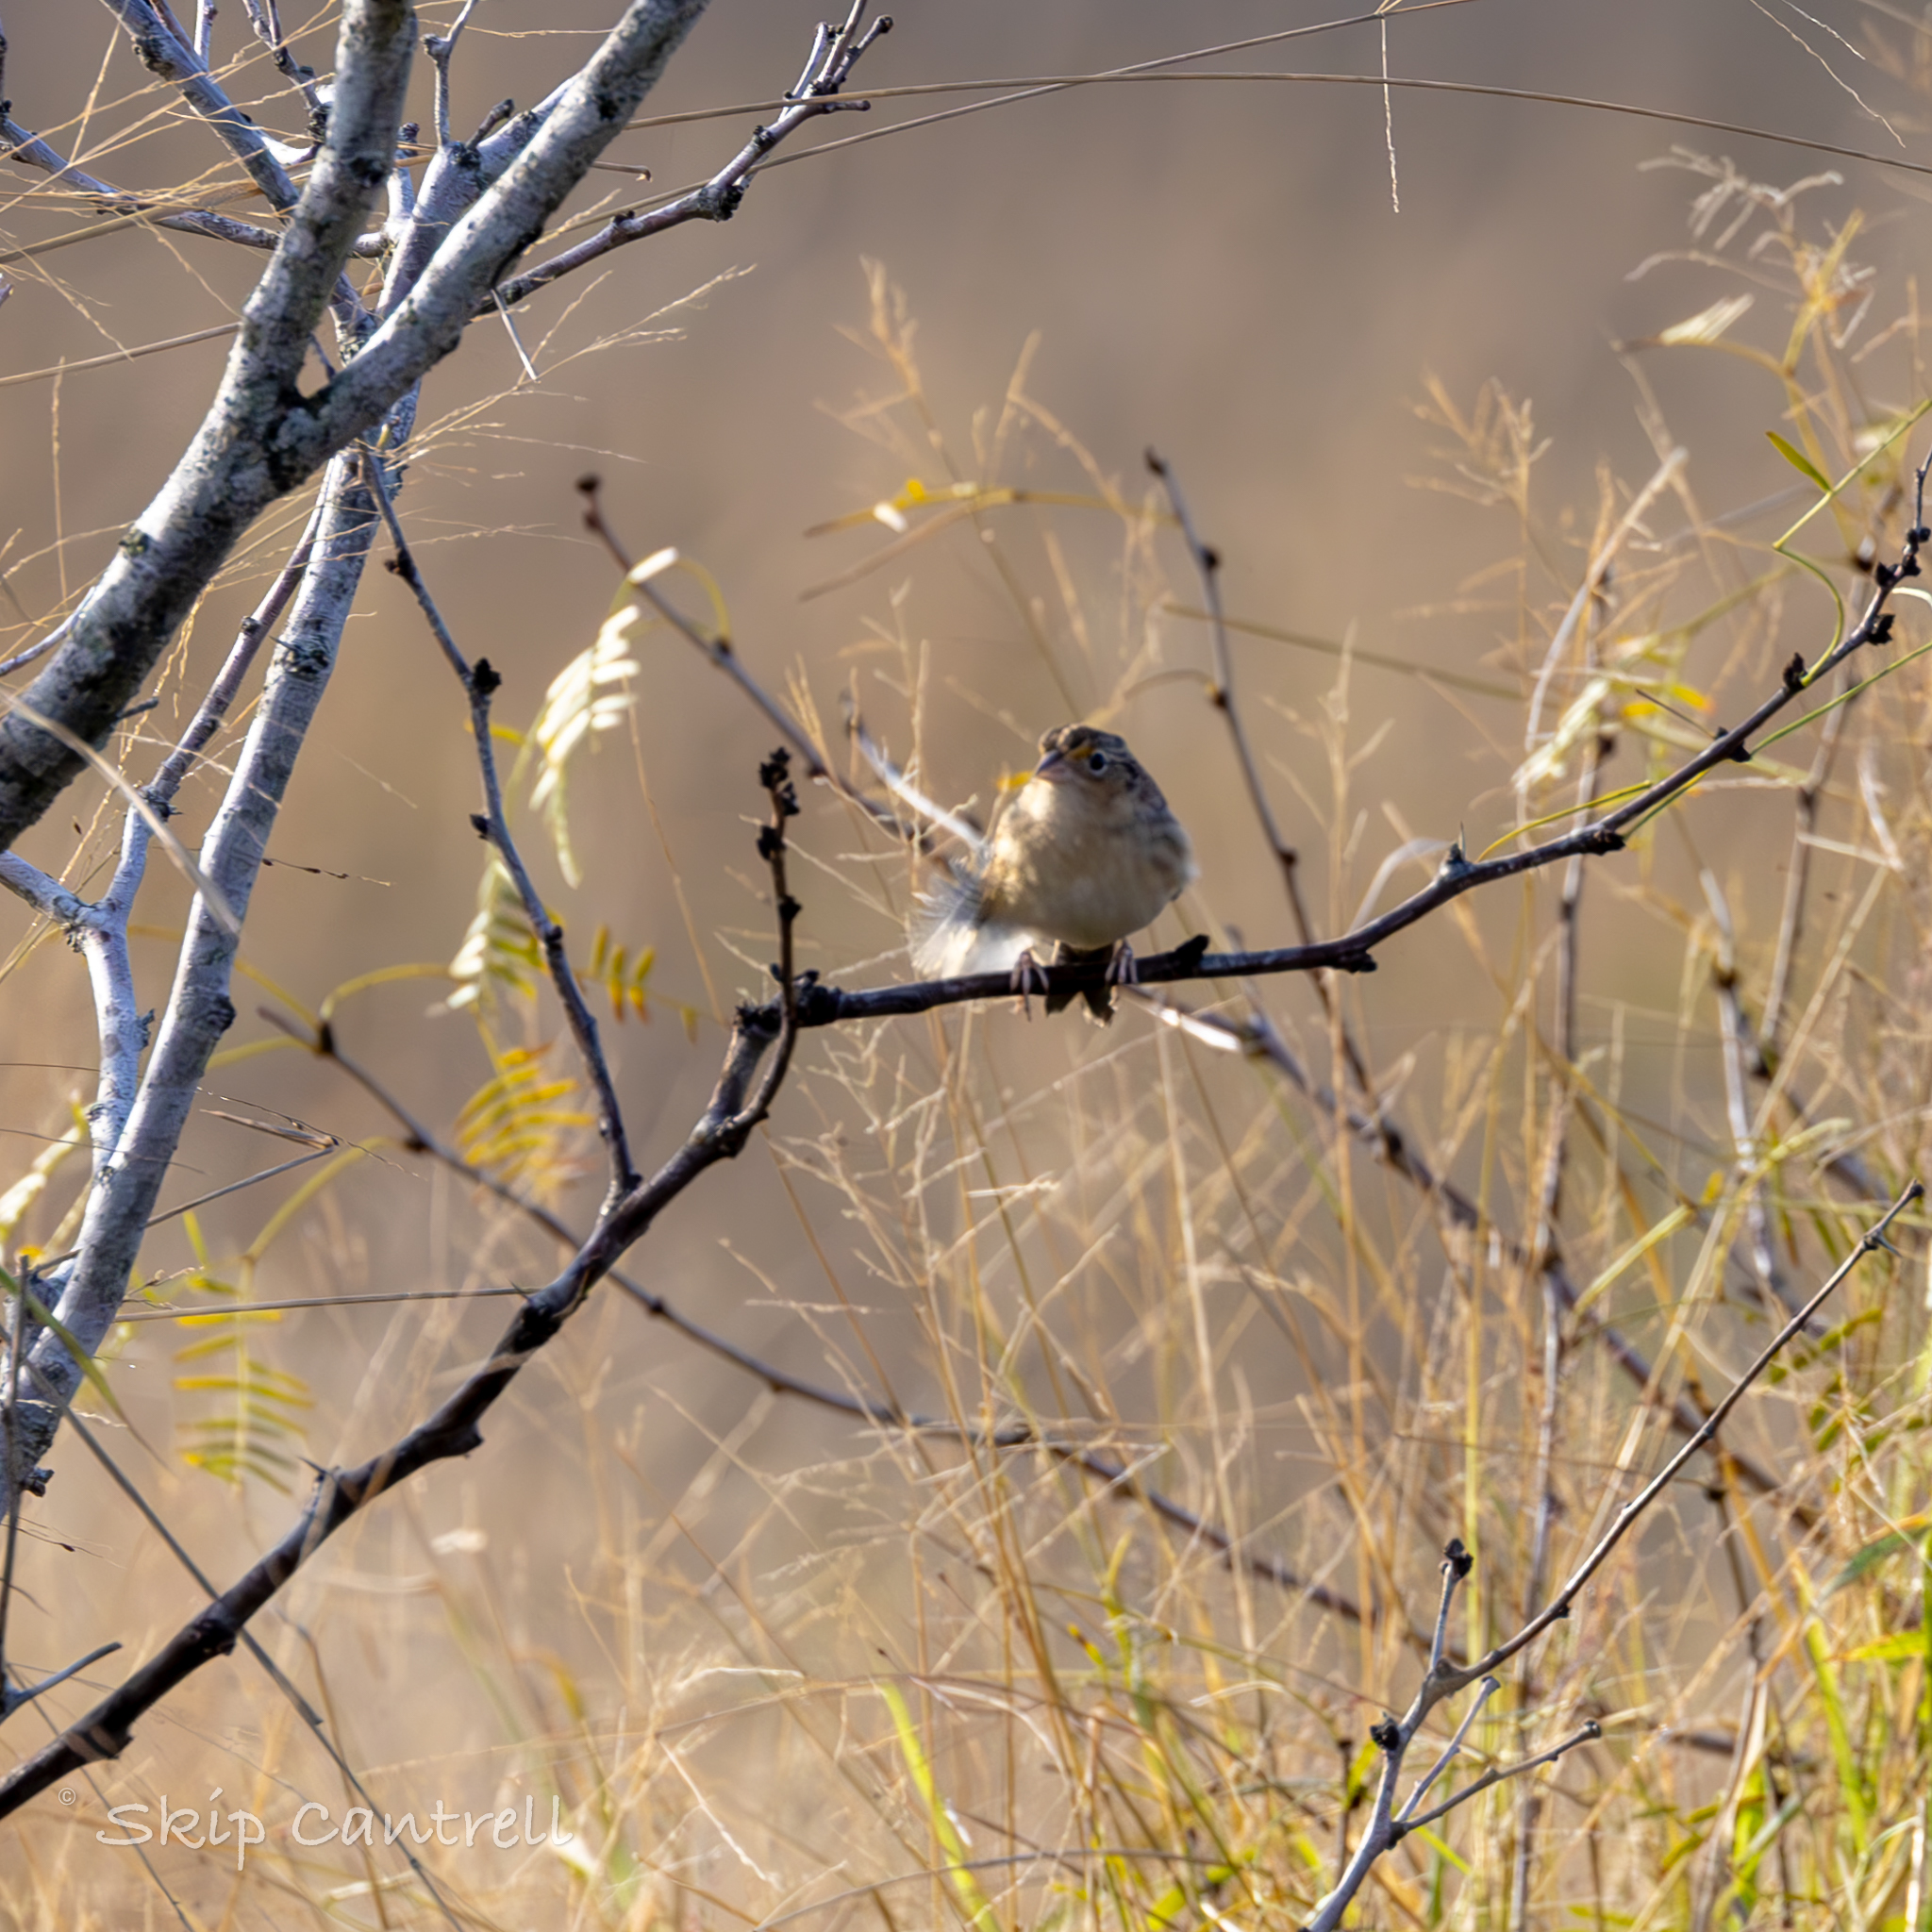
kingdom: Animalia
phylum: Chordata
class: Aves
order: Passeriformes
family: Passerellidae
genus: Ammodramus
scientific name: Ammodramus savannarum
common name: Grasshopper sparrow
